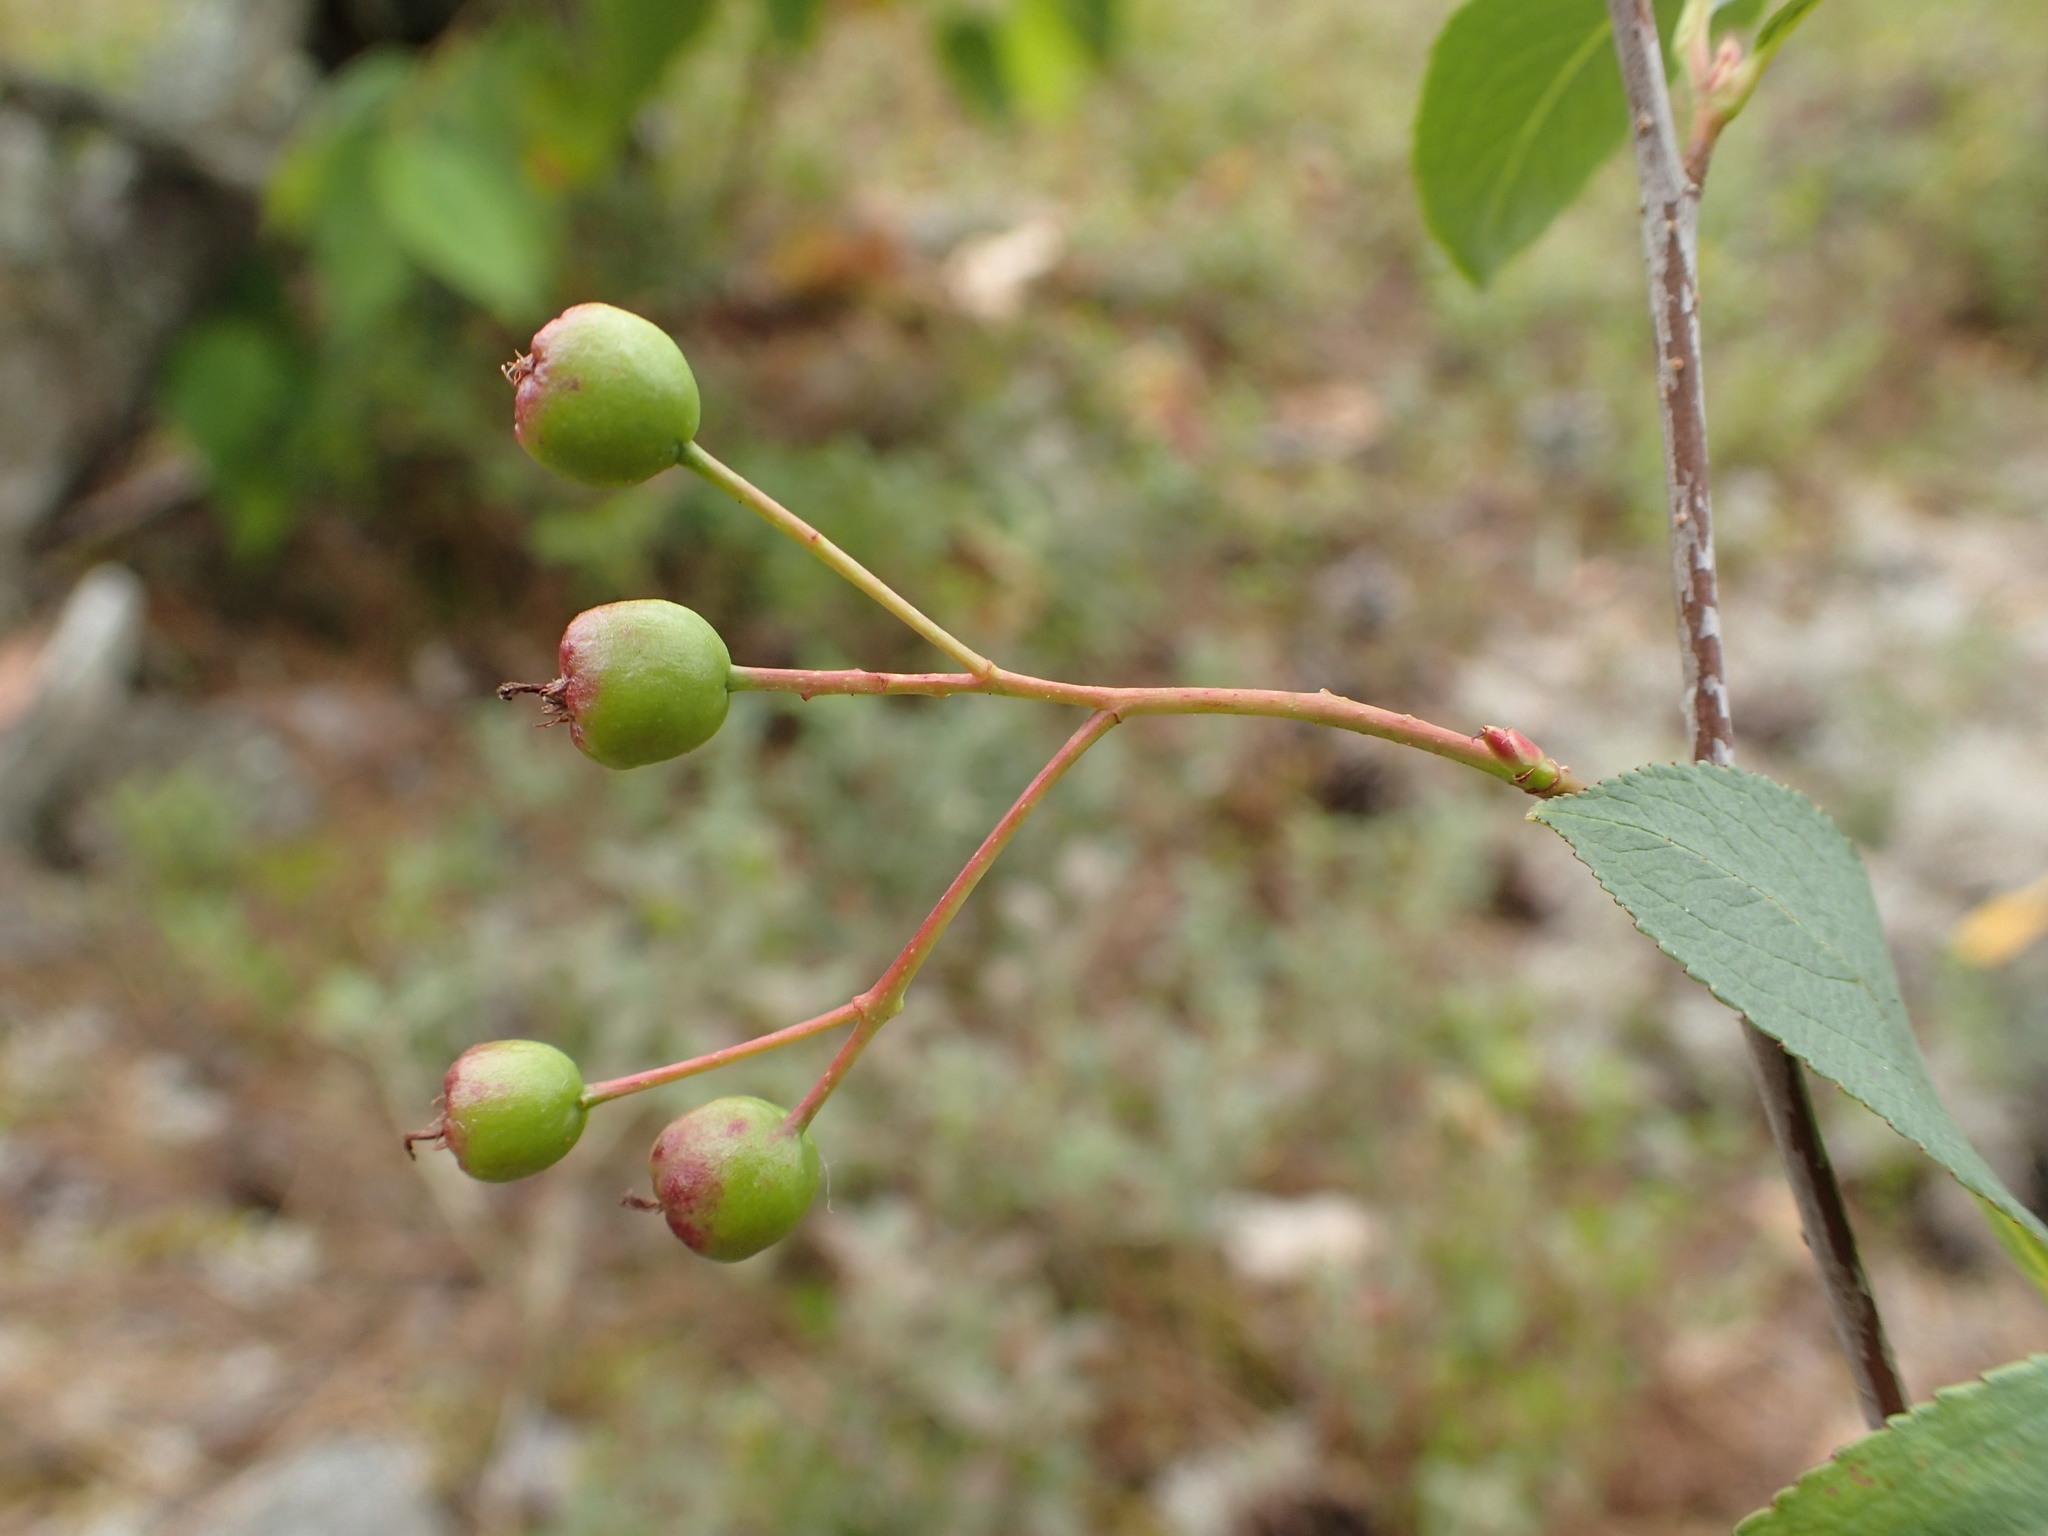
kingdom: Plantae
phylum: Tracheophyta
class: Magnoliopsida
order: Rosales
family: Rosaceae
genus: Aronia
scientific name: Aronia melanocarpa
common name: Black chokeberry
